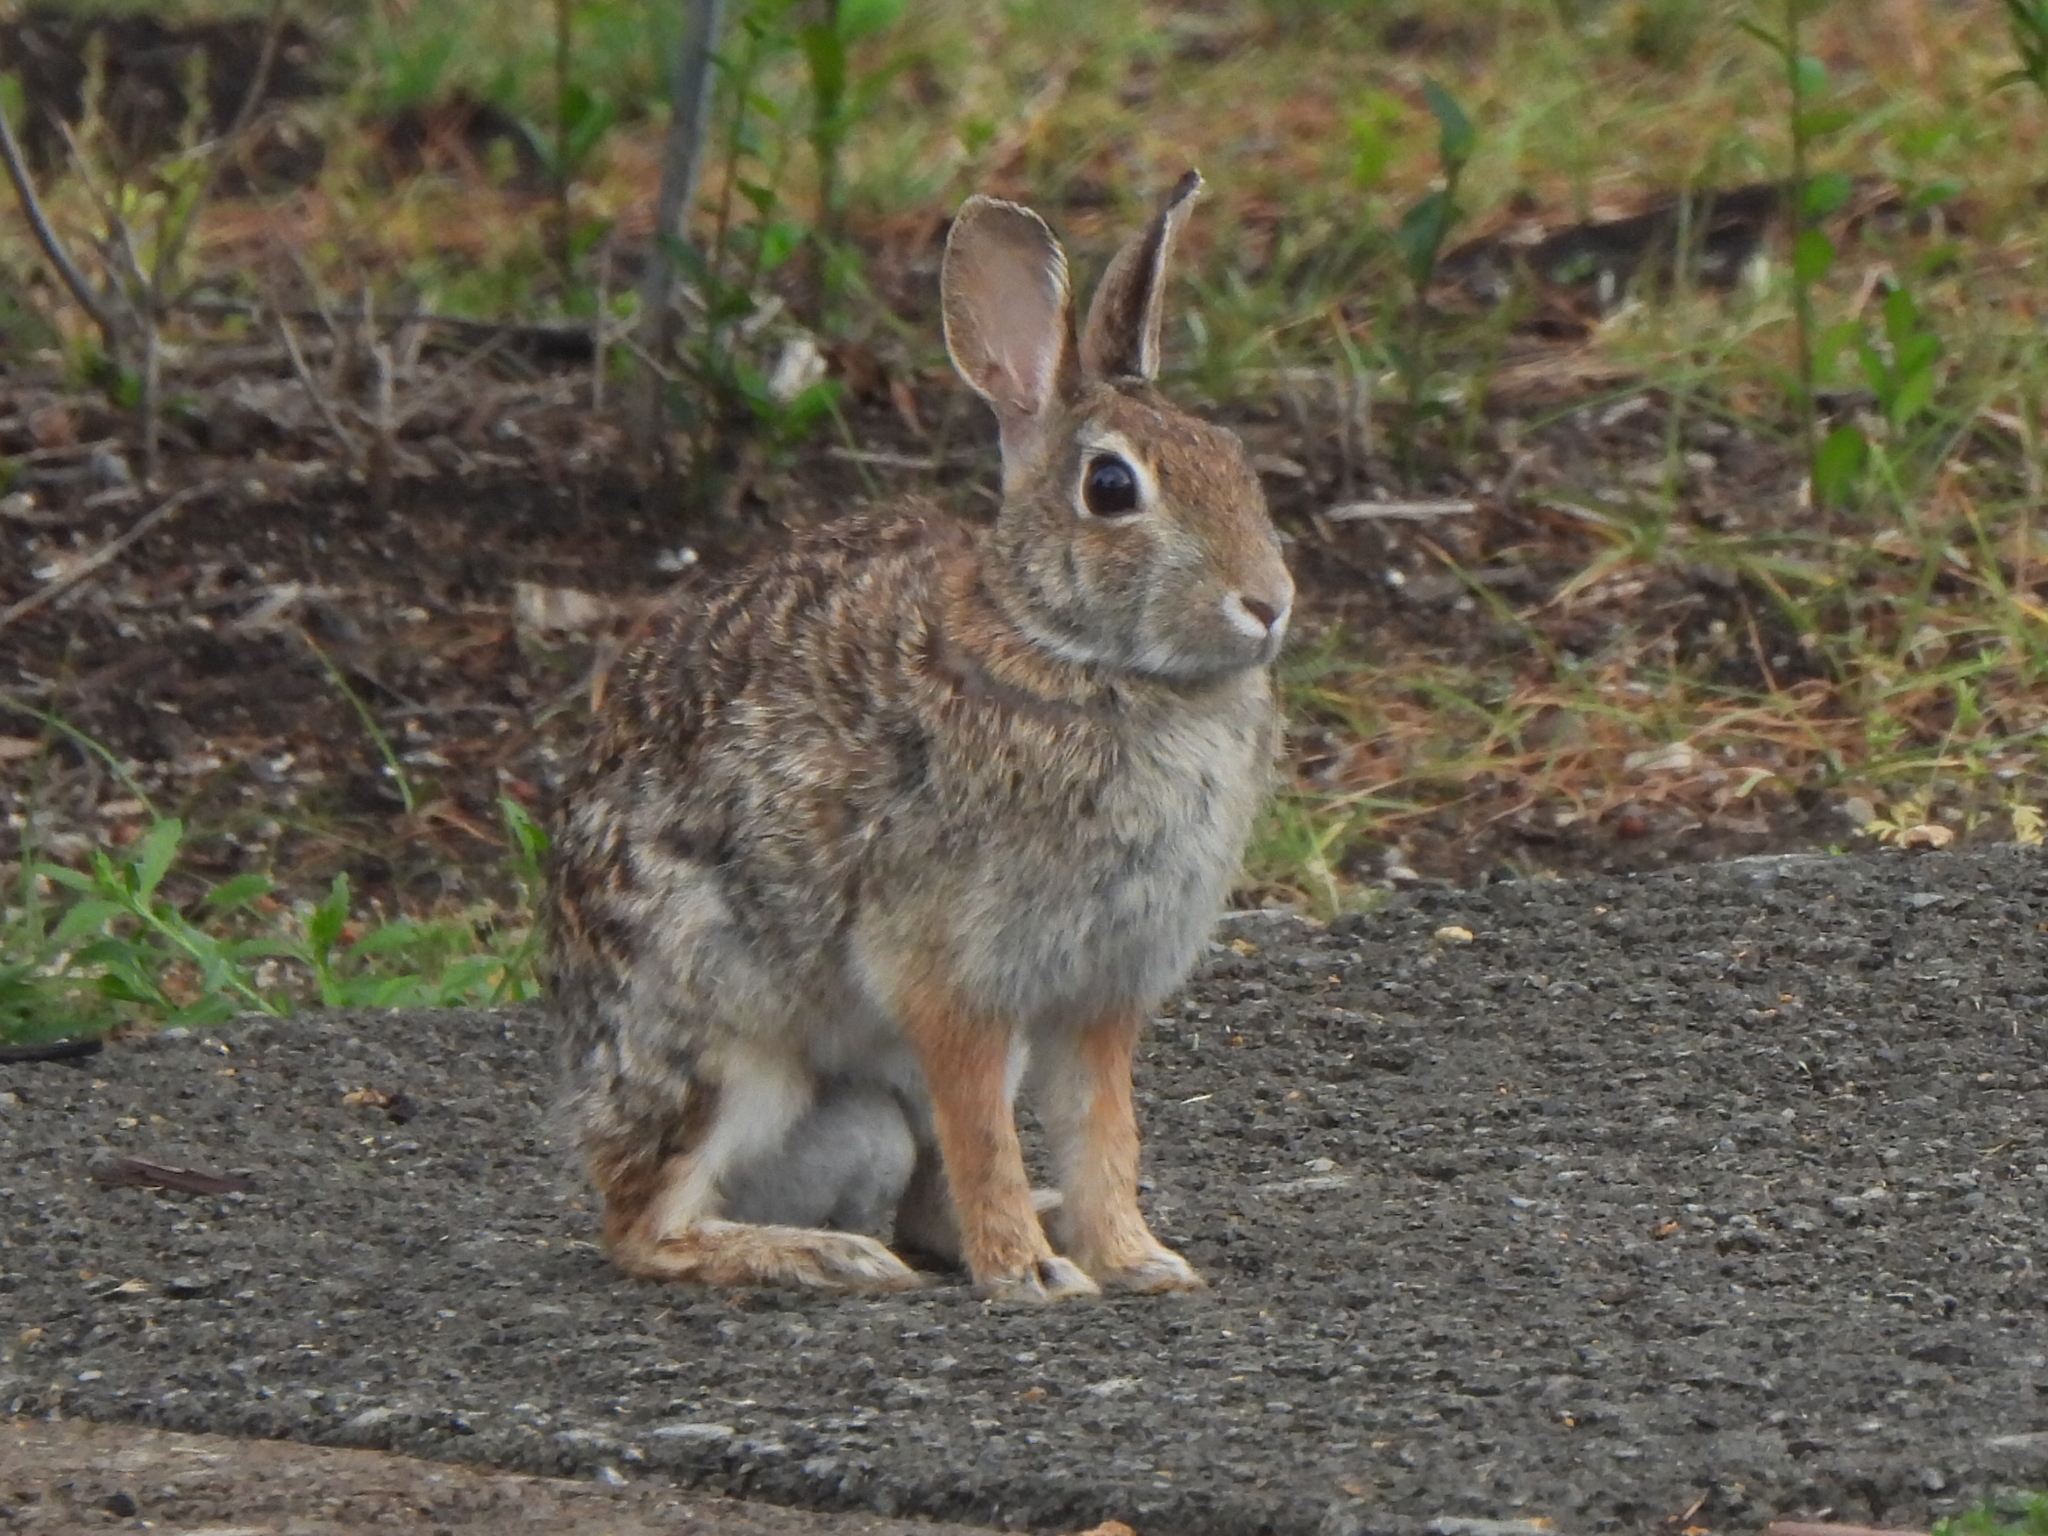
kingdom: Animalia
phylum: Chordata
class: Mammalia
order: Lagomorpha
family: Leporidae
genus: Sylvilagus
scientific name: Sylvilagus floridanus
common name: Eastern cottontail
